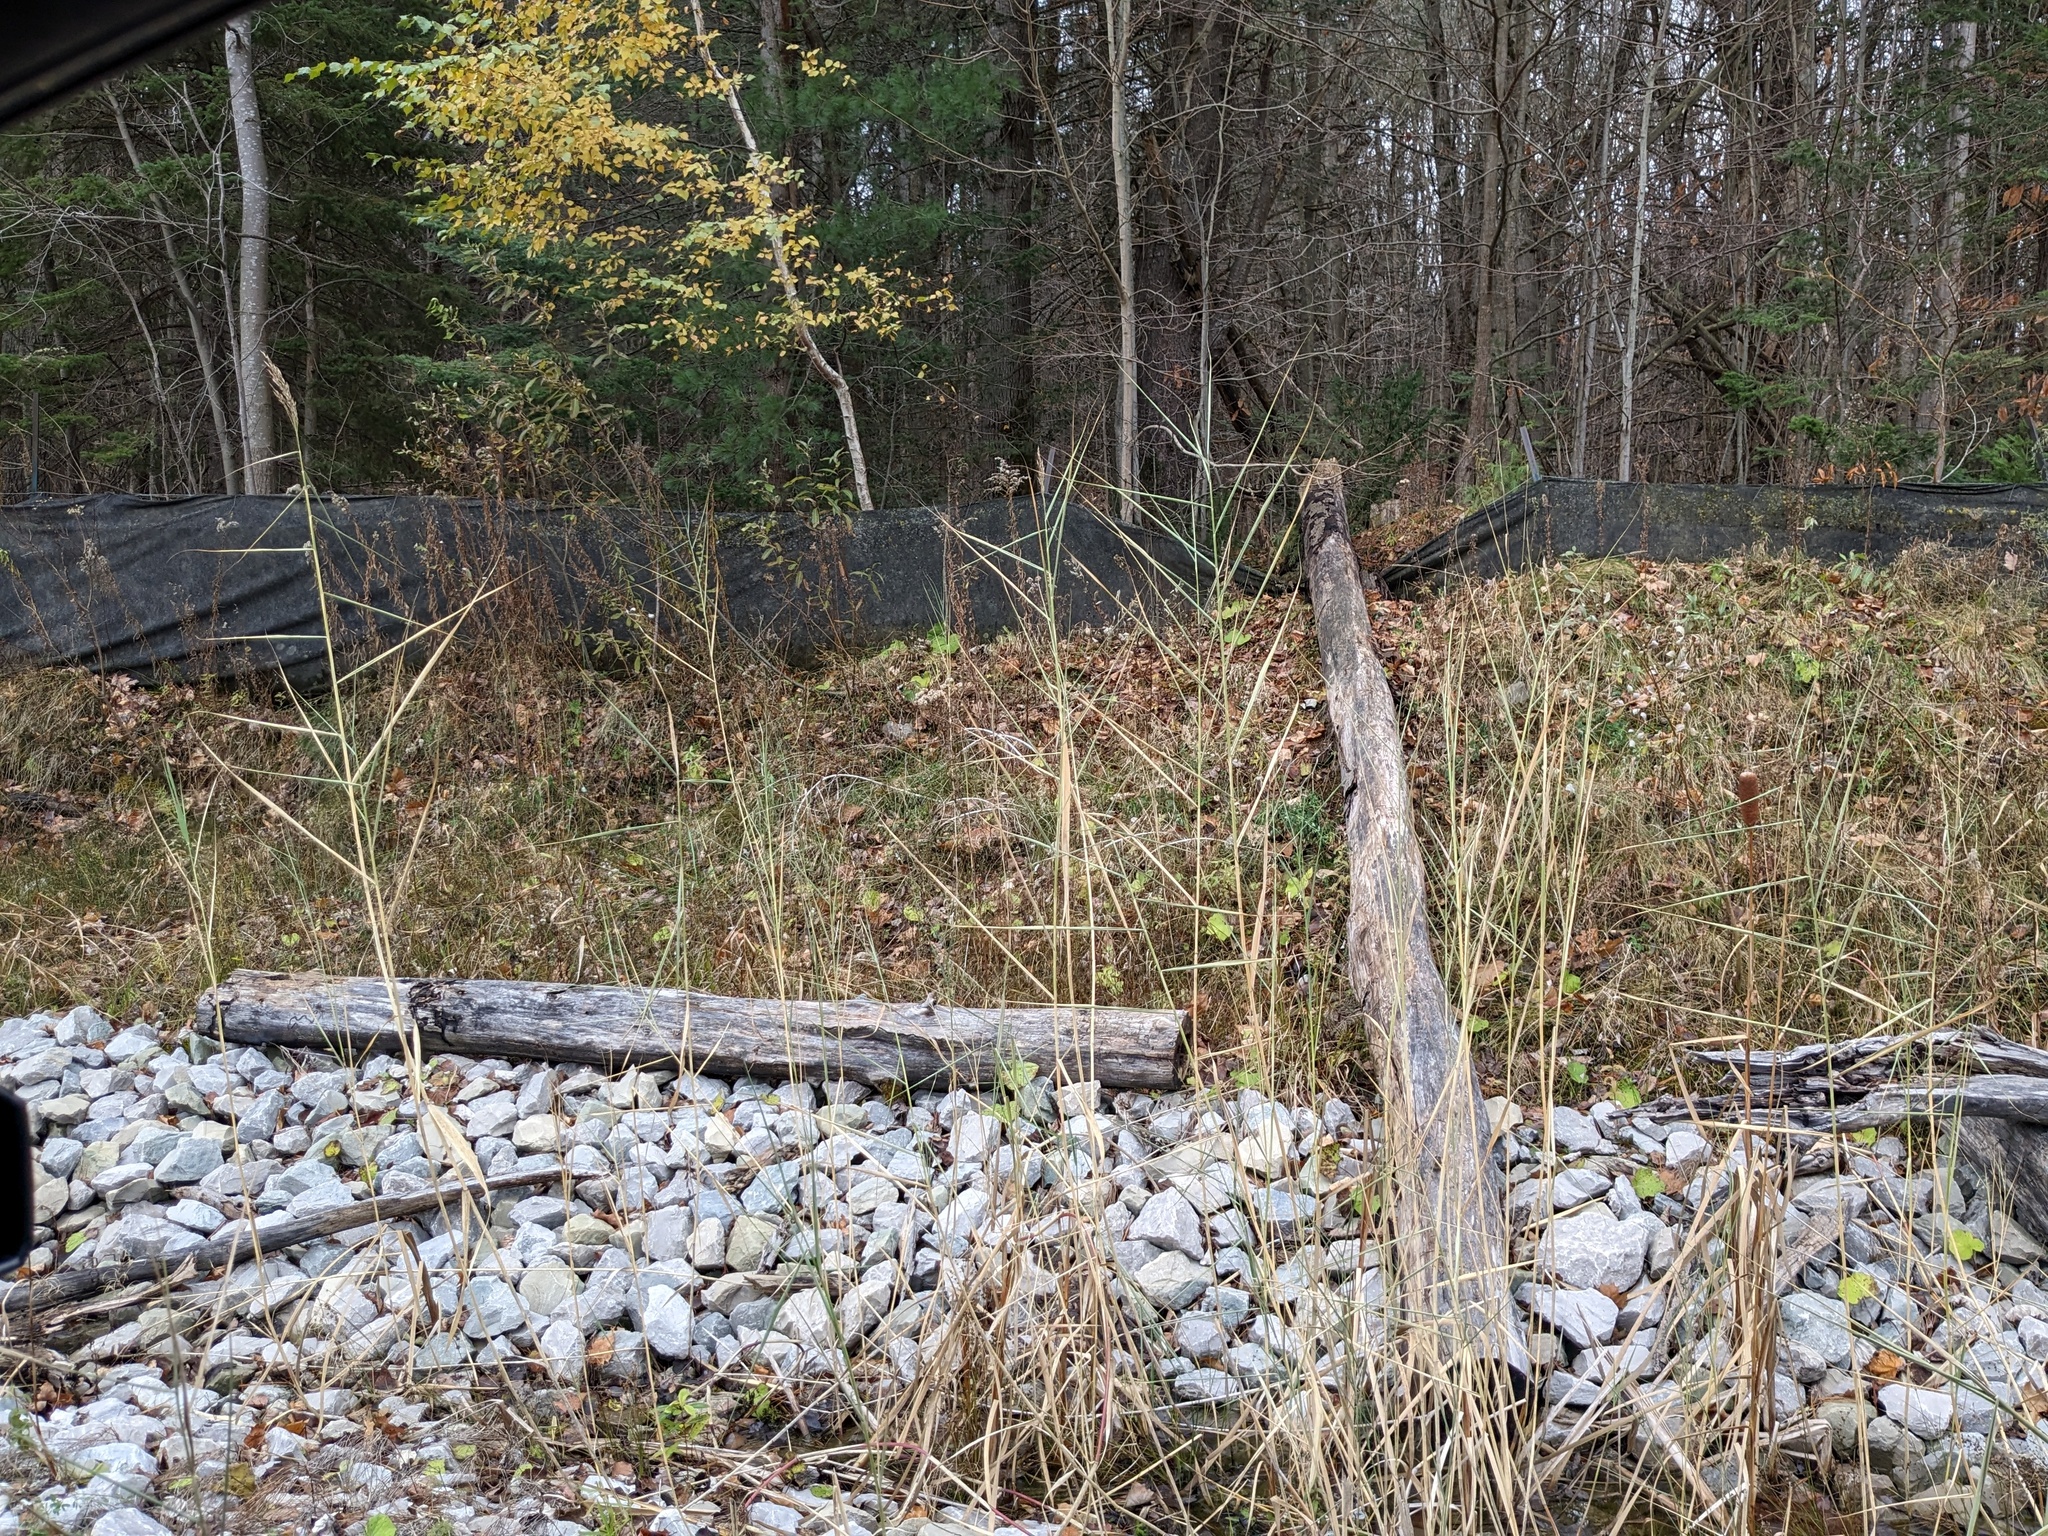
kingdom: Plantae
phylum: Tracheophyta
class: Liliopsida
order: Poales
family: Poaceae
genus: Phragmites
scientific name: Phragmites australis
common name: Common reed
